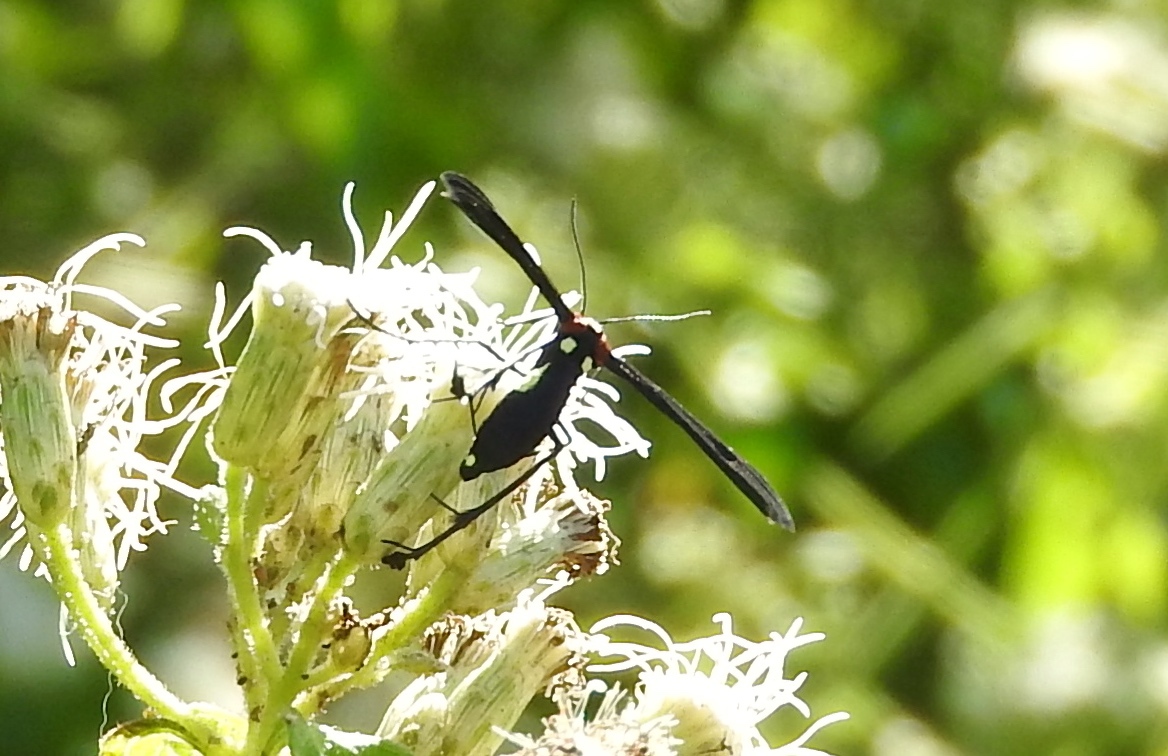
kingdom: Animalia
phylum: Arthropoda
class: Insecta
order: Lepidoptera
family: Pterophoridae
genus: Hellinsia
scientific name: Hellinsia chamelai
